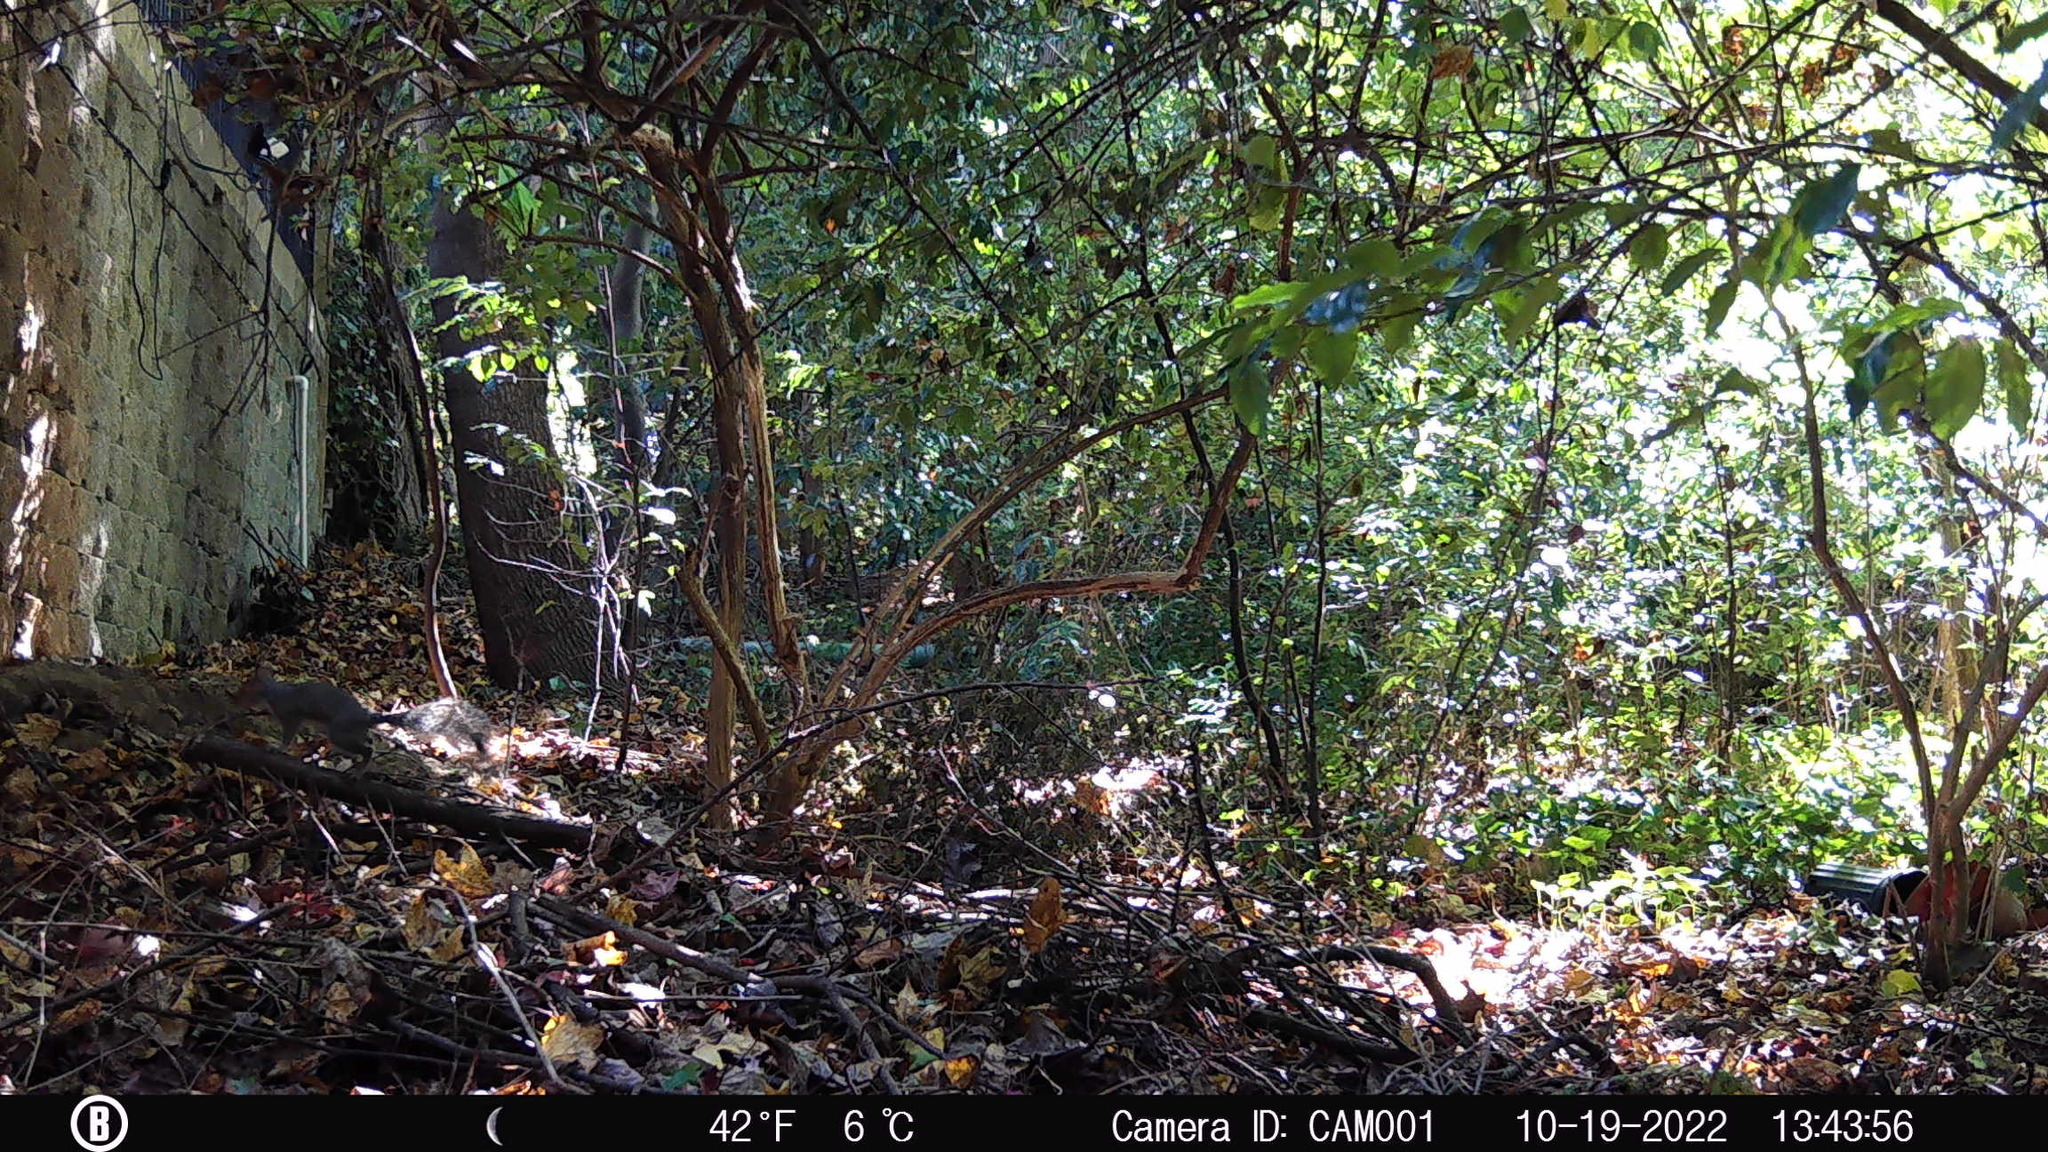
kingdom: Animalia
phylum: Chordata
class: Mammalia
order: Rodentia
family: Sciuridae
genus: Sciurus
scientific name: Sciurus carolinensis
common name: Eastern gray squirrel
